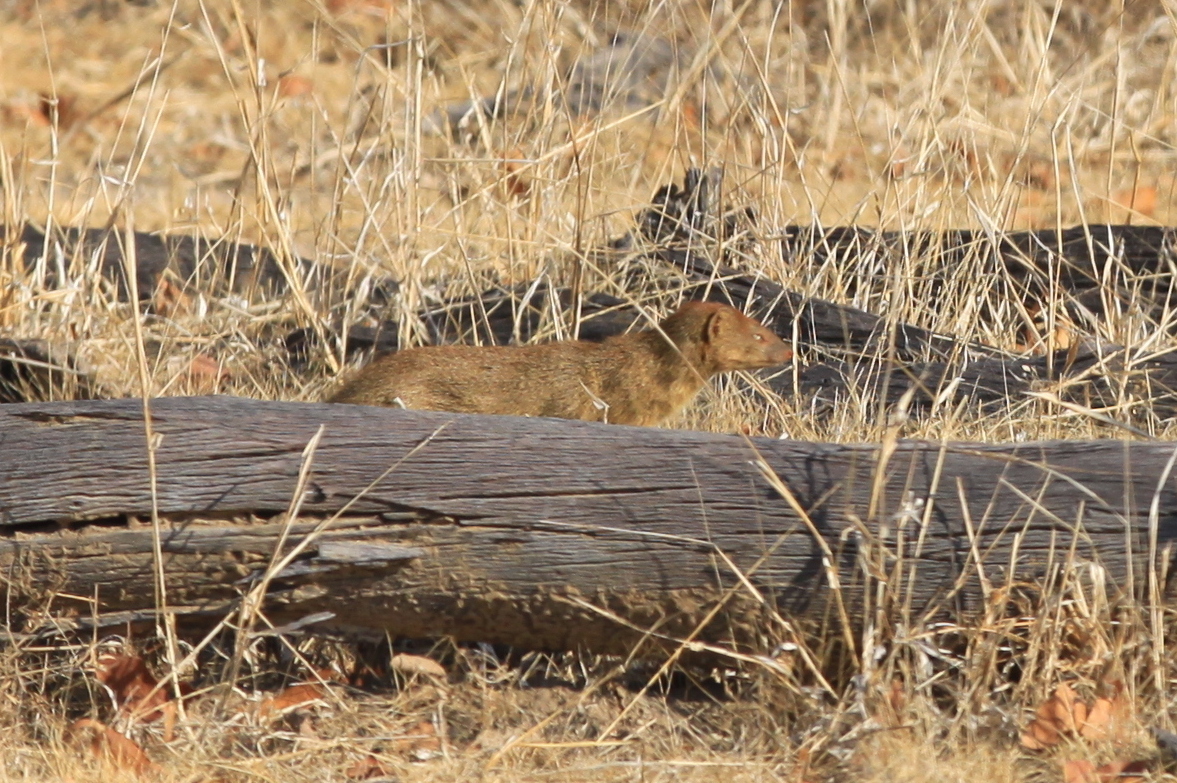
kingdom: Animalia
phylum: Chordata
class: Mammalia
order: Carnivora
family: Herpestidae
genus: Galerella
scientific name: Galerella sanguinea
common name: Slender mongoose
